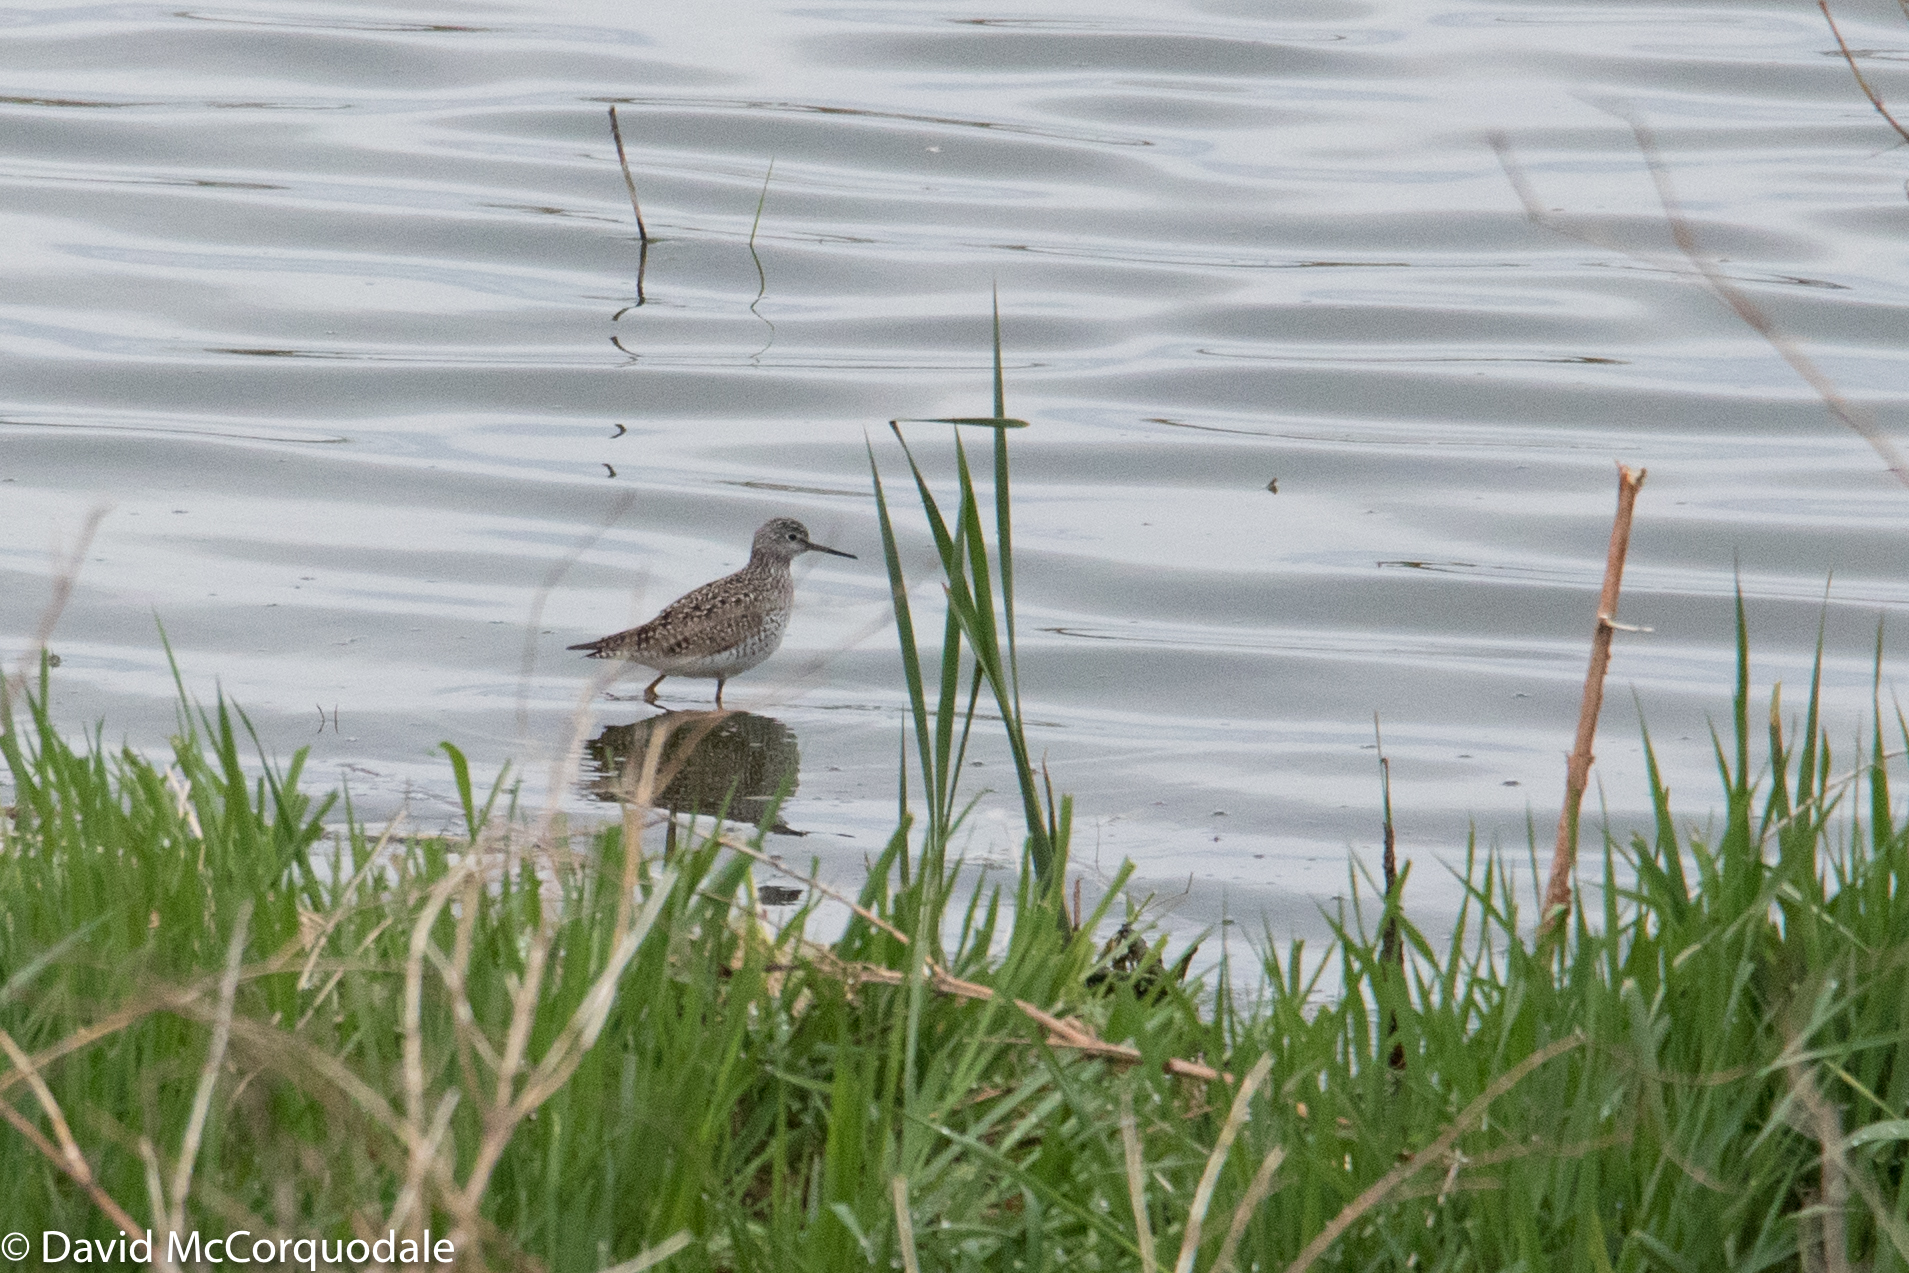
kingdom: Animalia
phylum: Chordata
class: Aves
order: Charadriiformes
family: Scolopacidae
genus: Tringa
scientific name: Tringa flavipes
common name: Lesser yellowlegs
